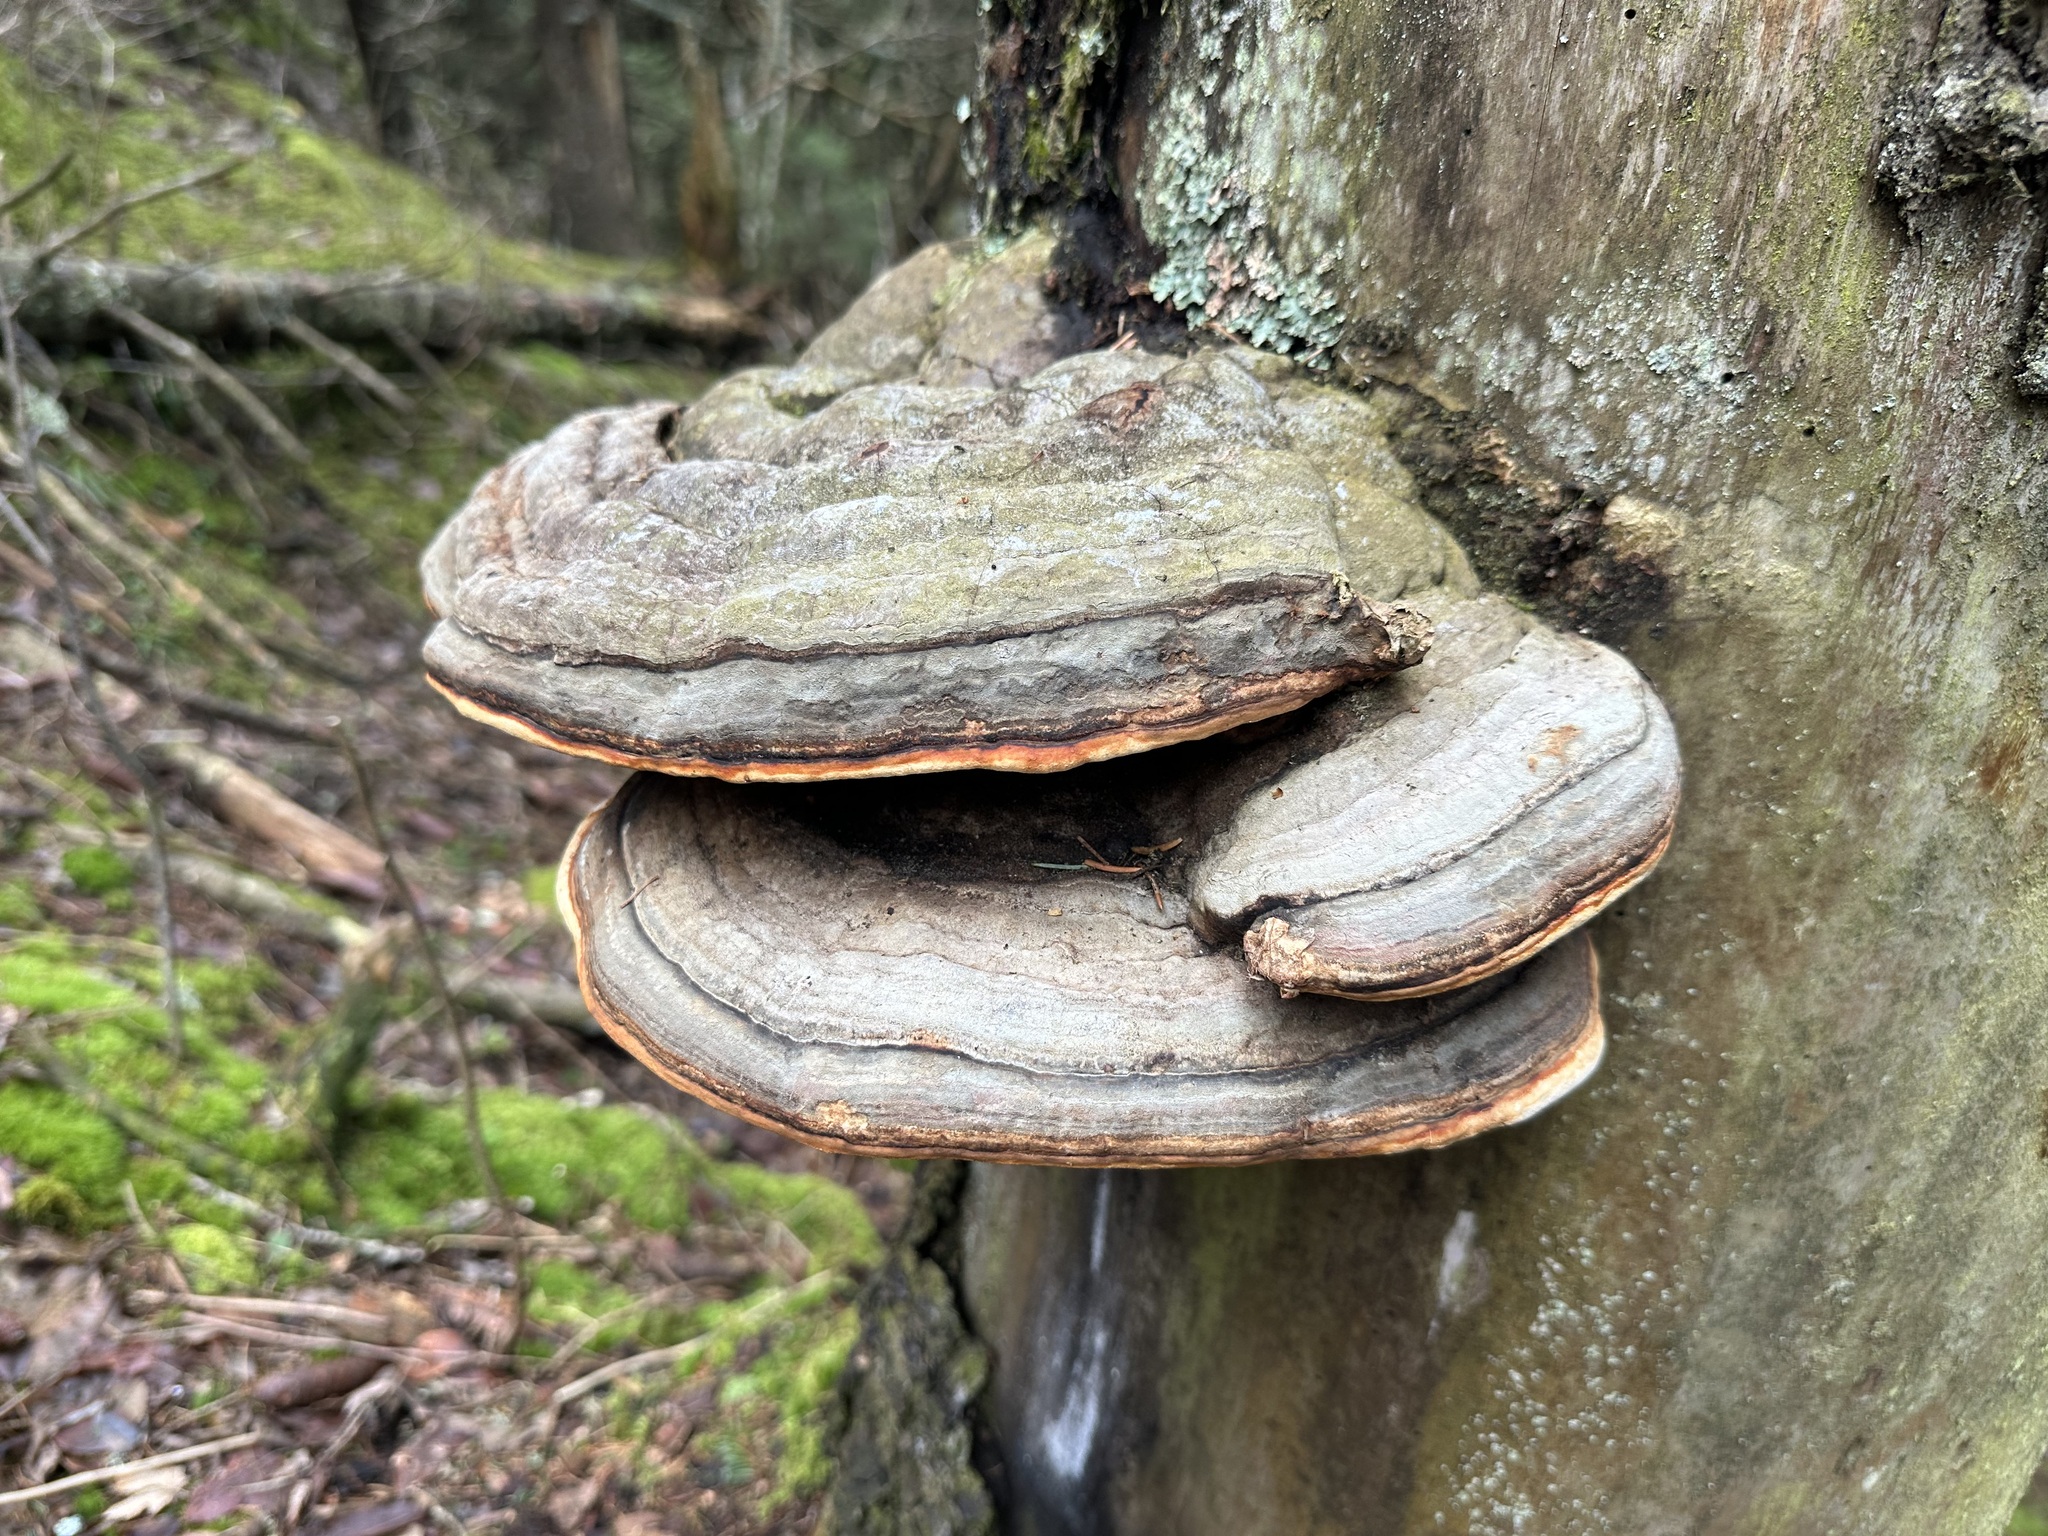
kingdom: Fungi
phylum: Basidiomycota
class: Agaricomycetes
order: Polyporales
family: Fomitopsidaceae
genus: Fomitopsis
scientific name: Fomitopsis pinicola
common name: Red-belted bracket
